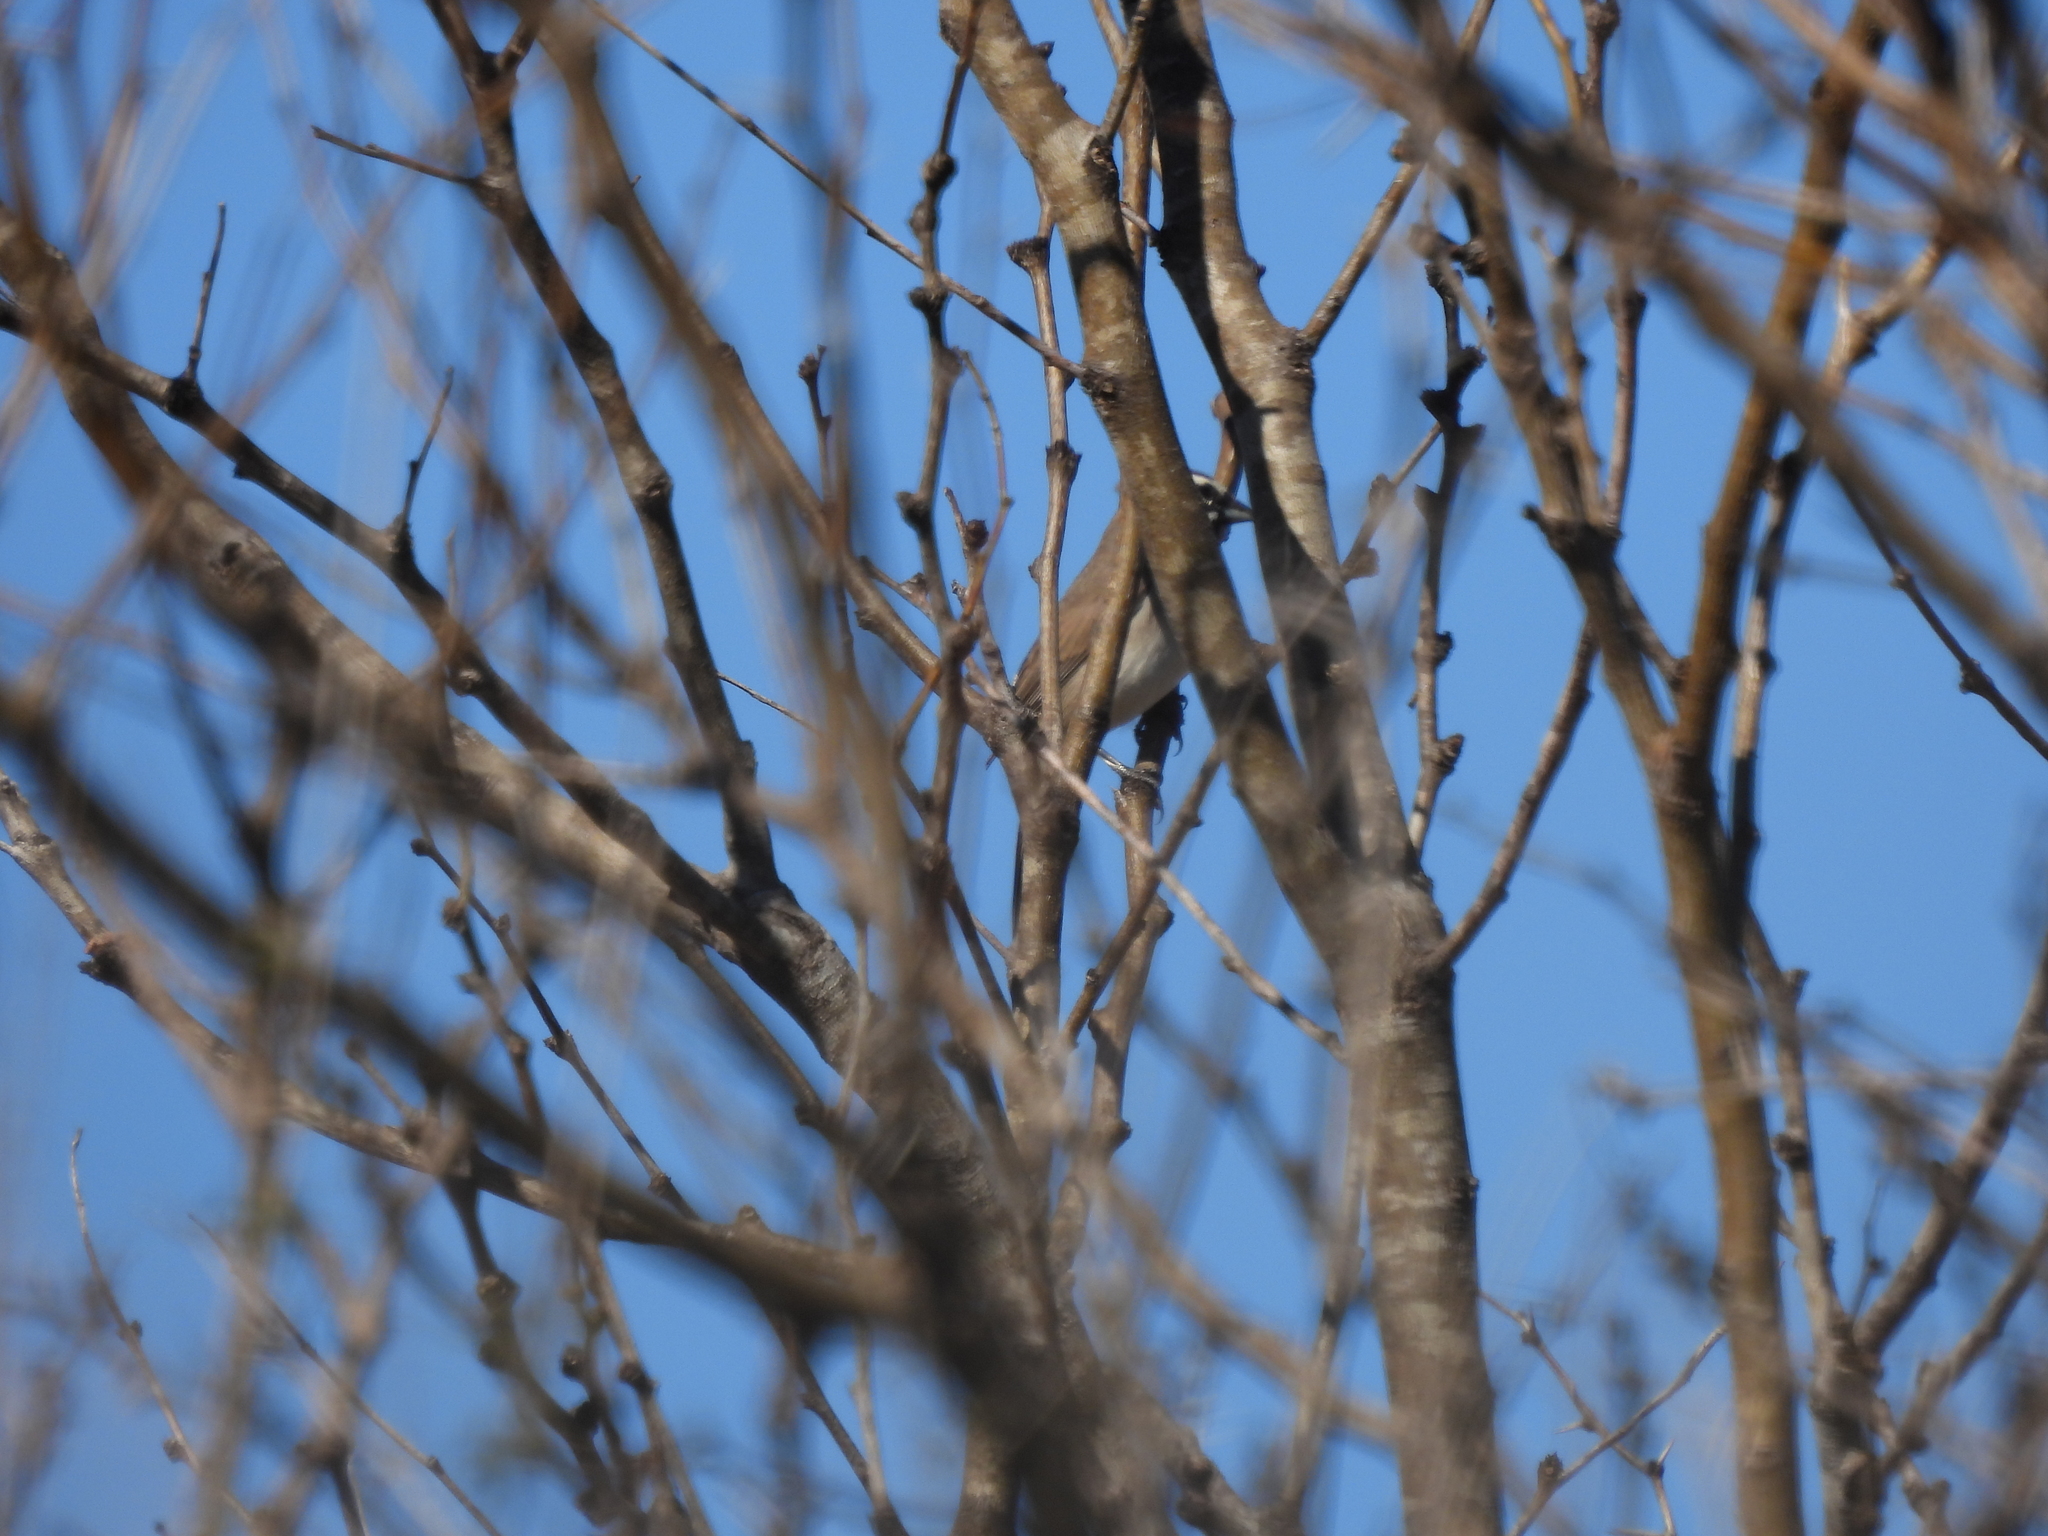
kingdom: Animalia
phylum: Chordata
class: Aves
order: Passeriformes
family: Passerellidae
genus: Amphispiza
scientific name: Amphispiza bilineata
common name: Black-throated sparrow
